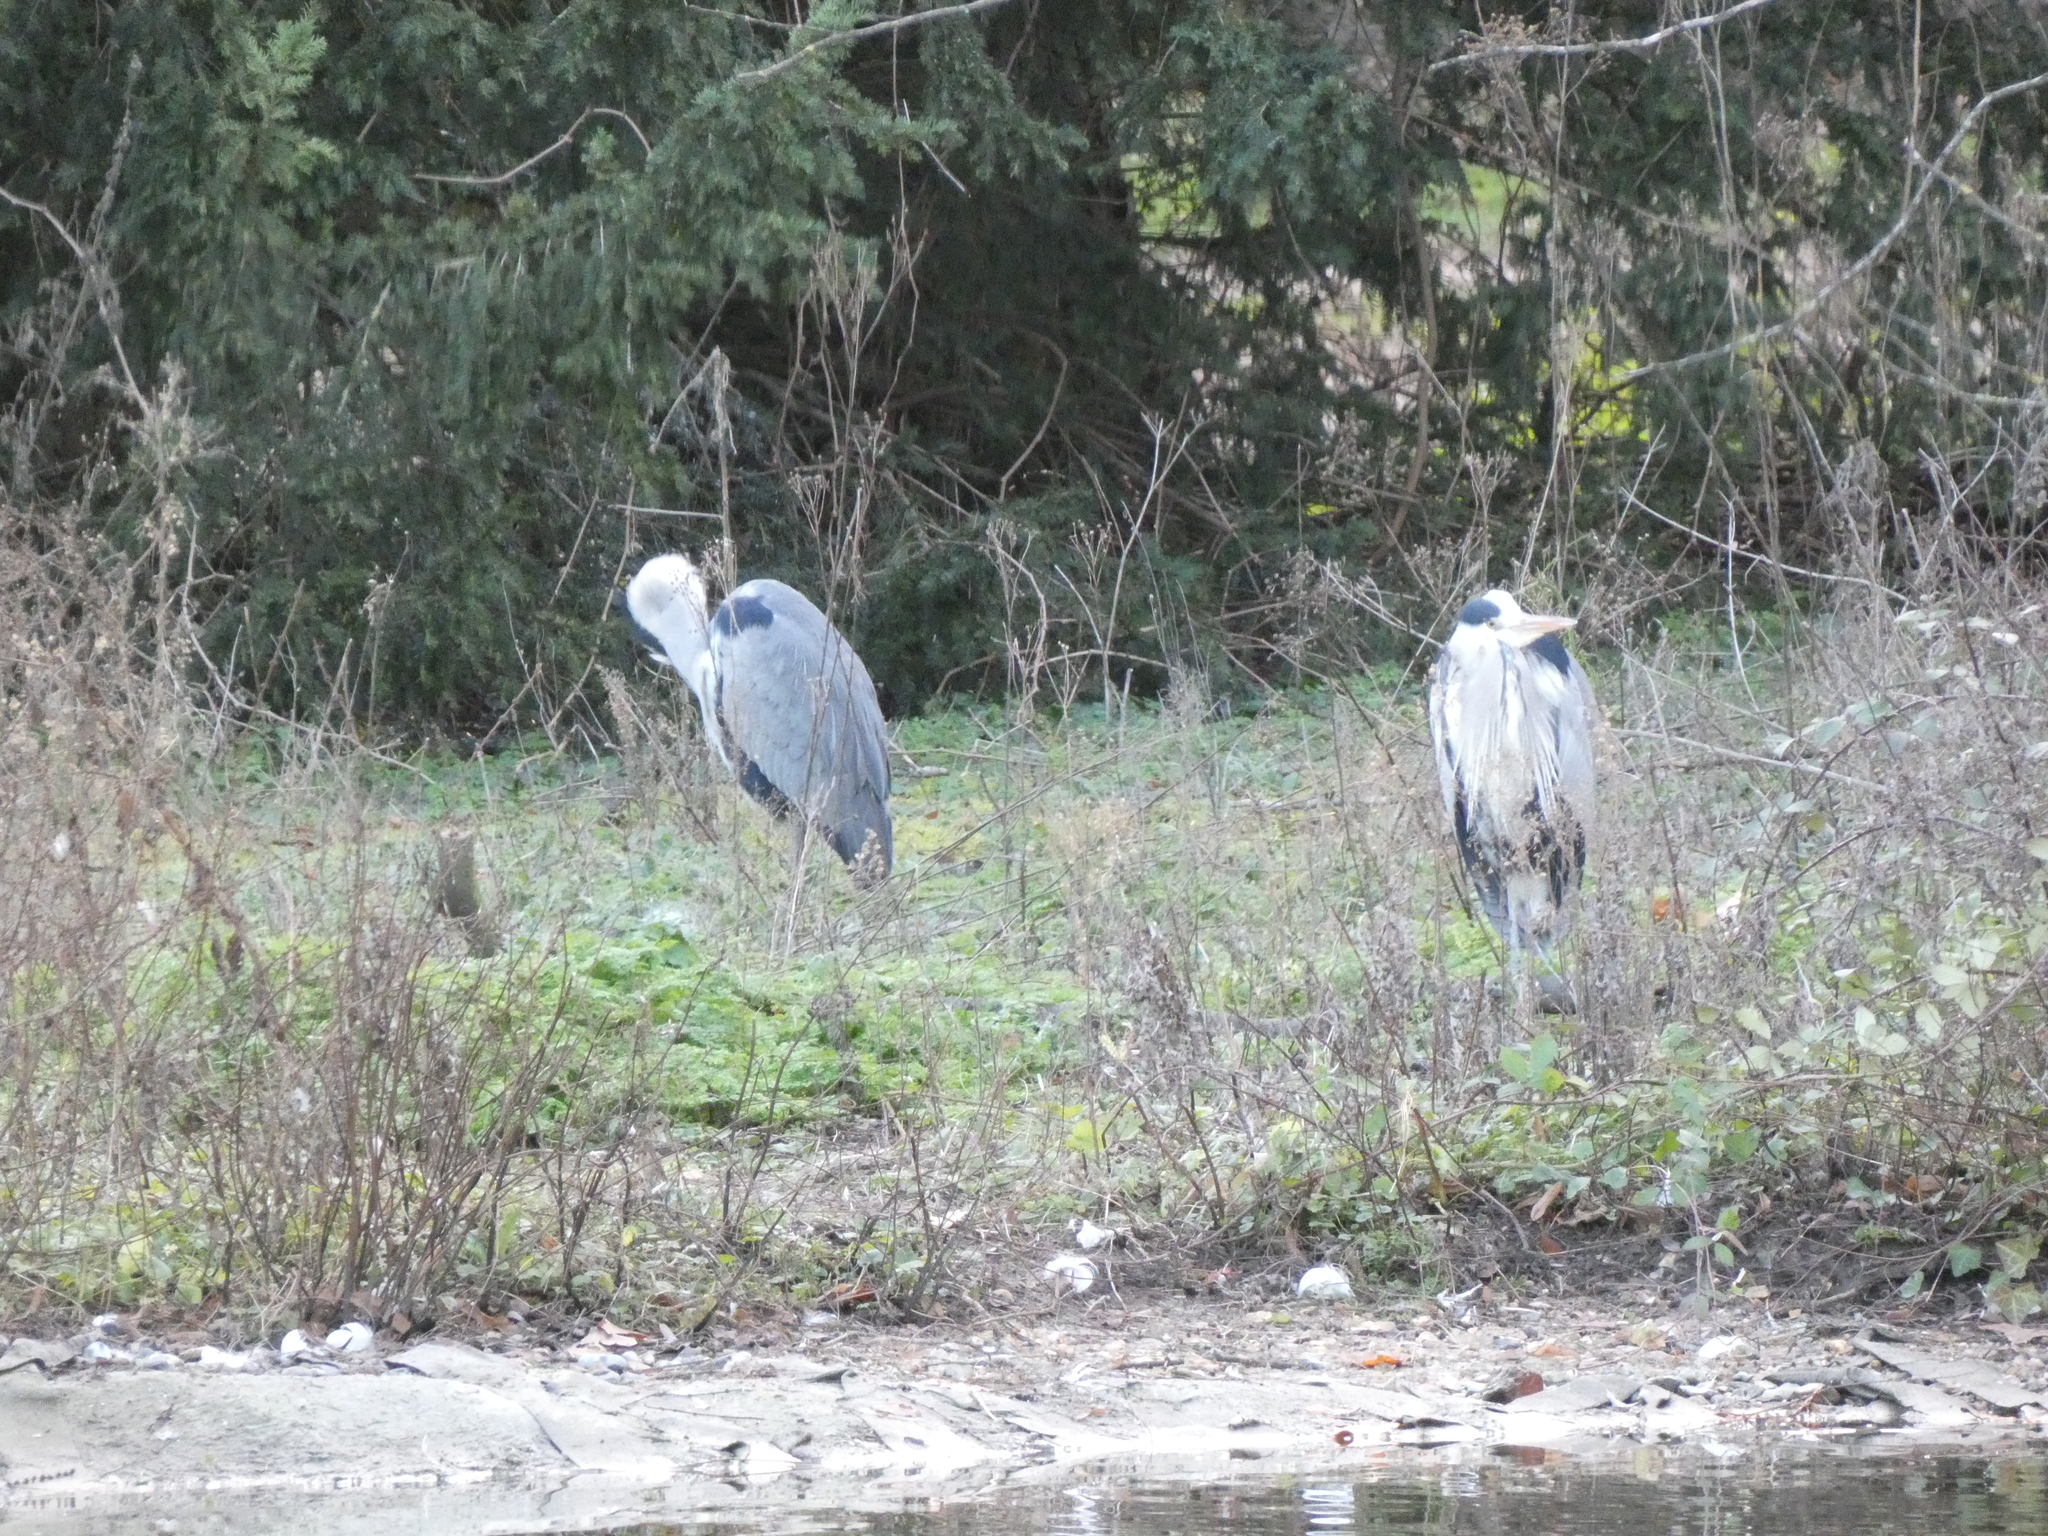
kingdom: Animalia
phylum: Chordata
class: Aves
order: Pelecaniformes
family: Ardeidae
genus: Ardea
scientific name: Ardea cinerea
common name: Grey heron
